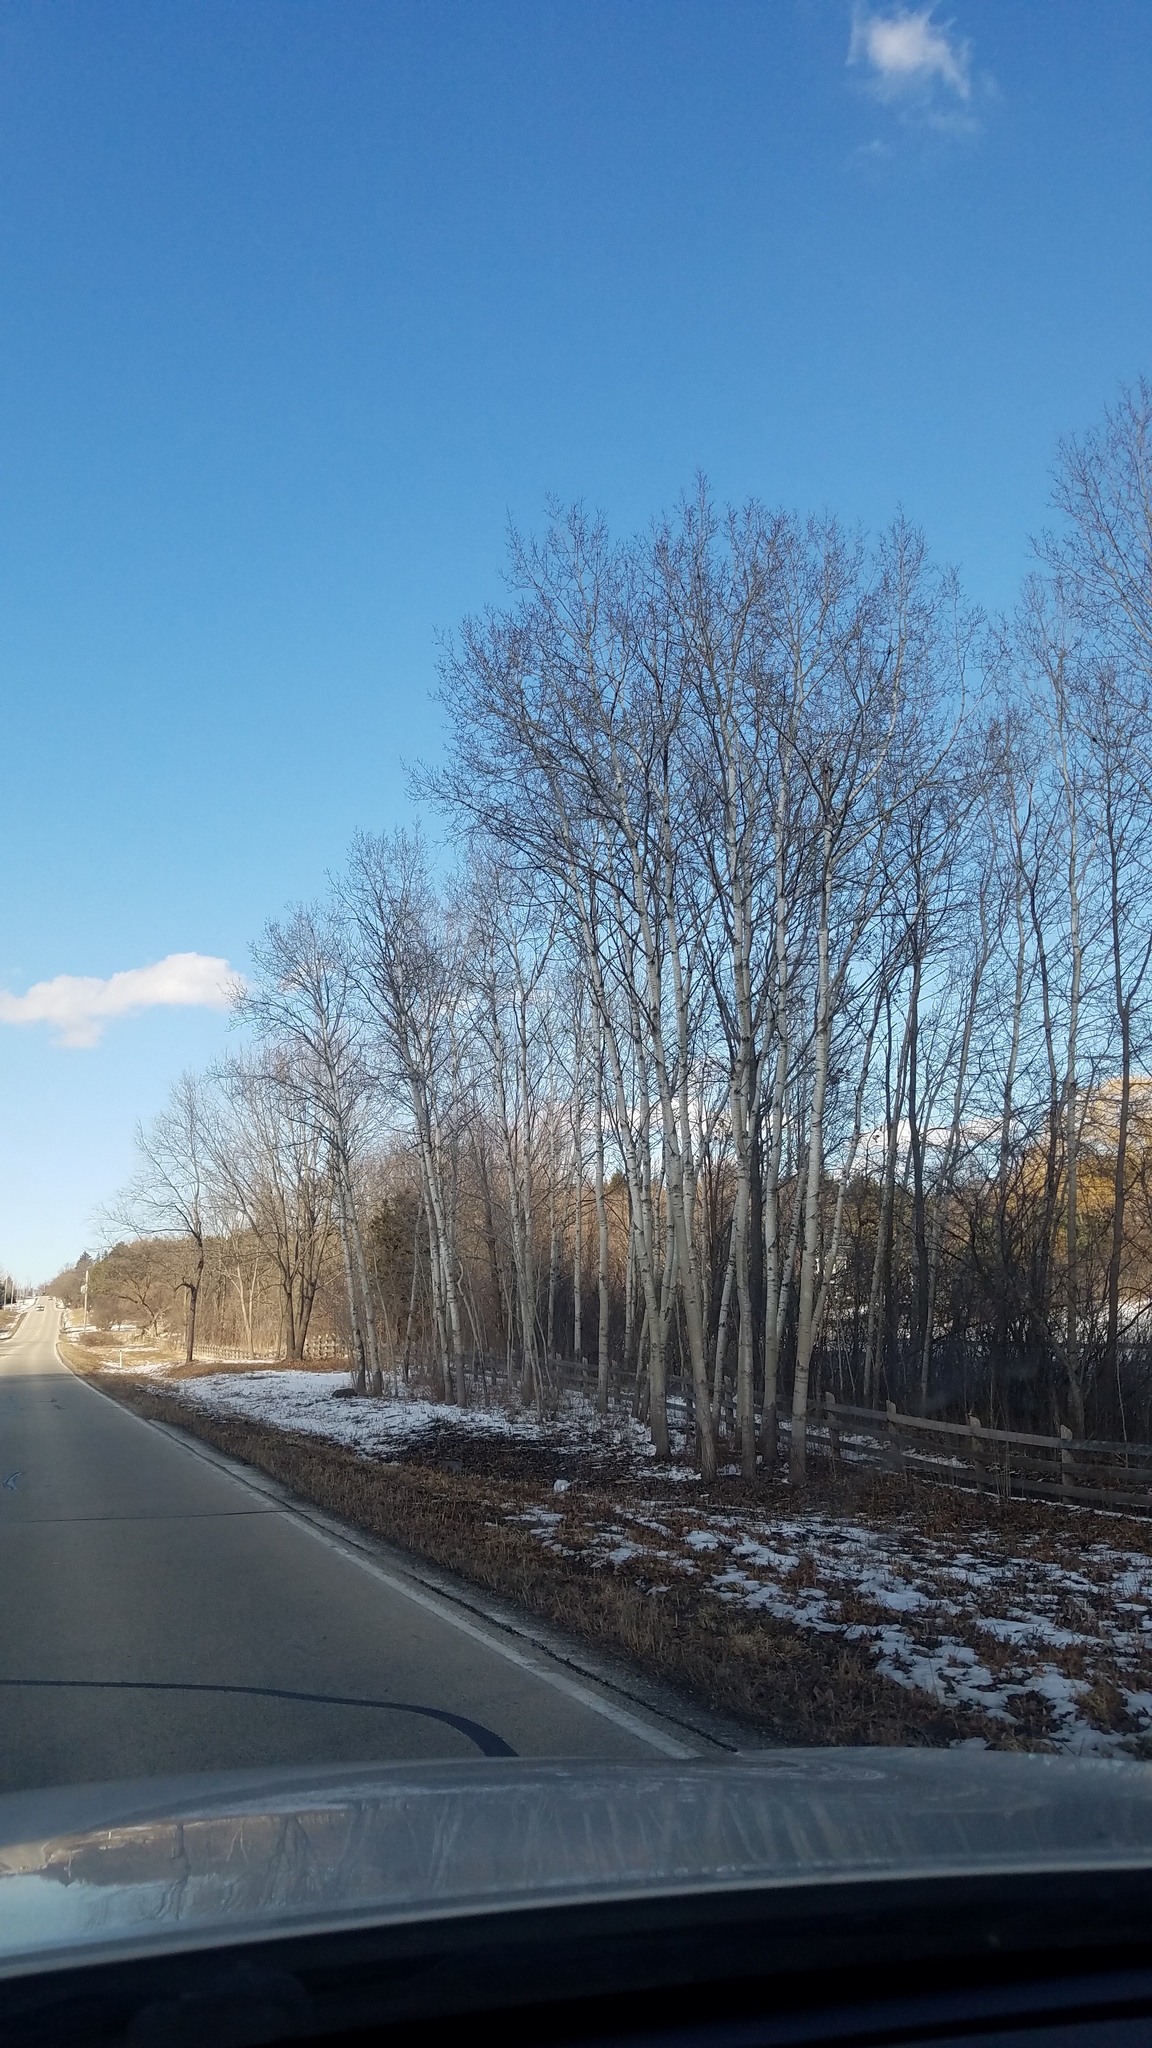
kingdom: Plantae
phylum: Tracheophyta
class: Magnoliopsida
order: Malpighiales
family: Salicaceae
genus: Populus
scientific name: Populus tremuloides
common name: Quaking aspen
